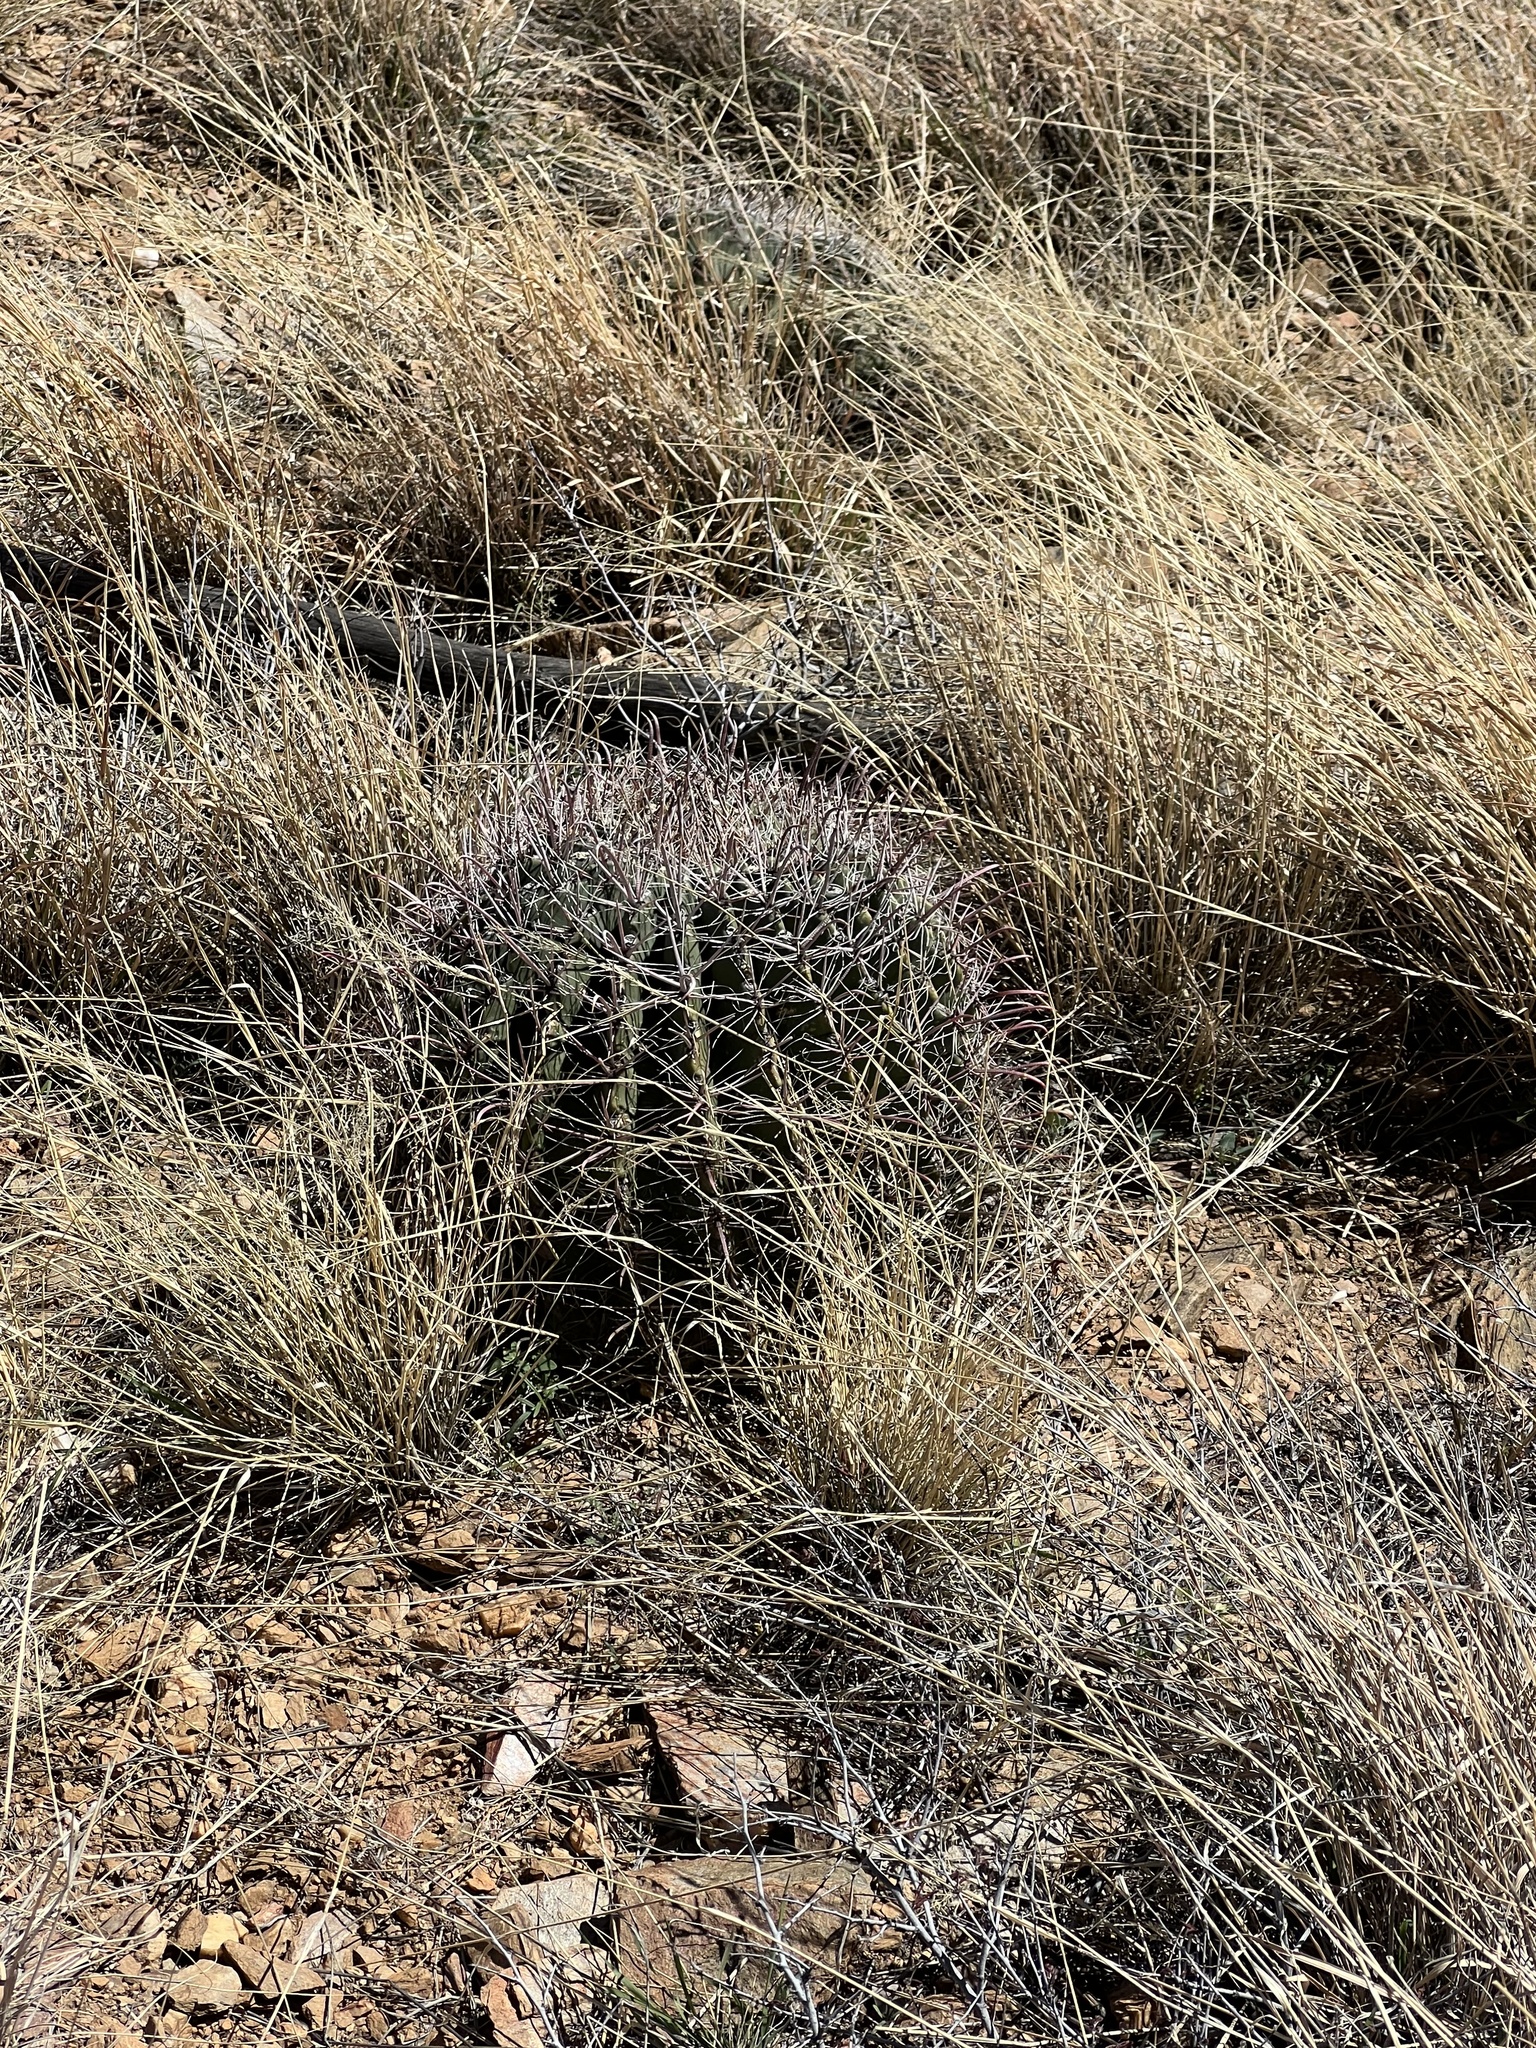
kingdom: Plantae
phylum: Tracheophyta
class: Magnoliopsida
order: Caryophyllales
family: Cactaceae
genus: Ferocactus
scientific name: Ferocactus wislizeni
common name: Candy barrel cactus
